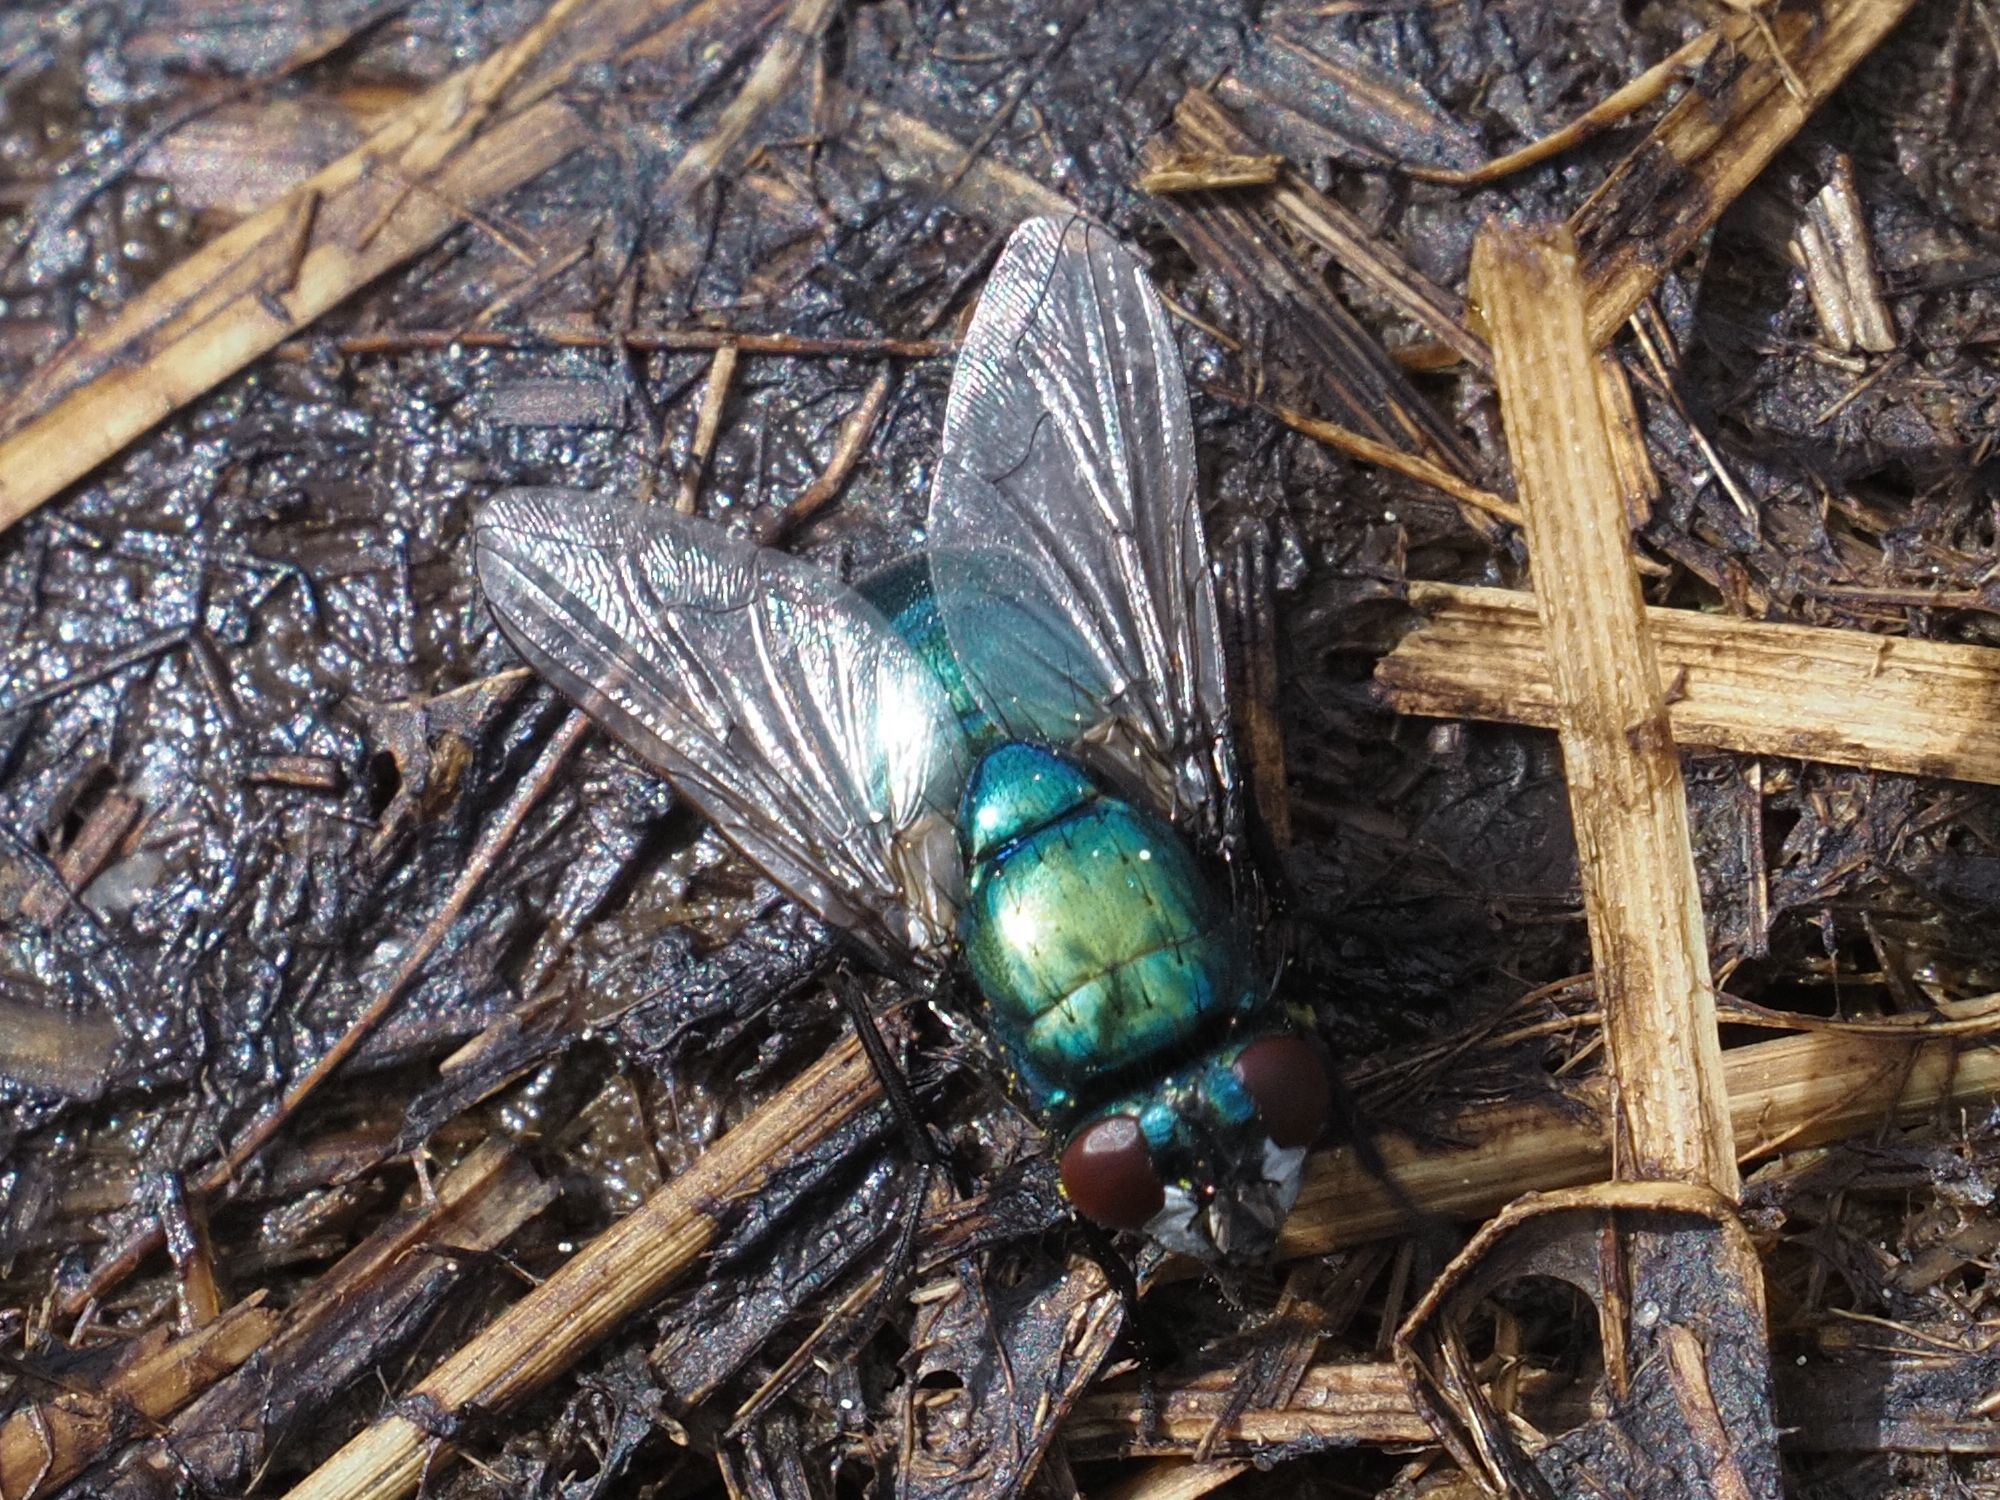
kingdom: Animalia
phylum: Arthropoda
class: Insecta
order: Diptera
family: Muscidae
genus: Neomyia
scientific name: Neomyia cornicina
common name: House fly
